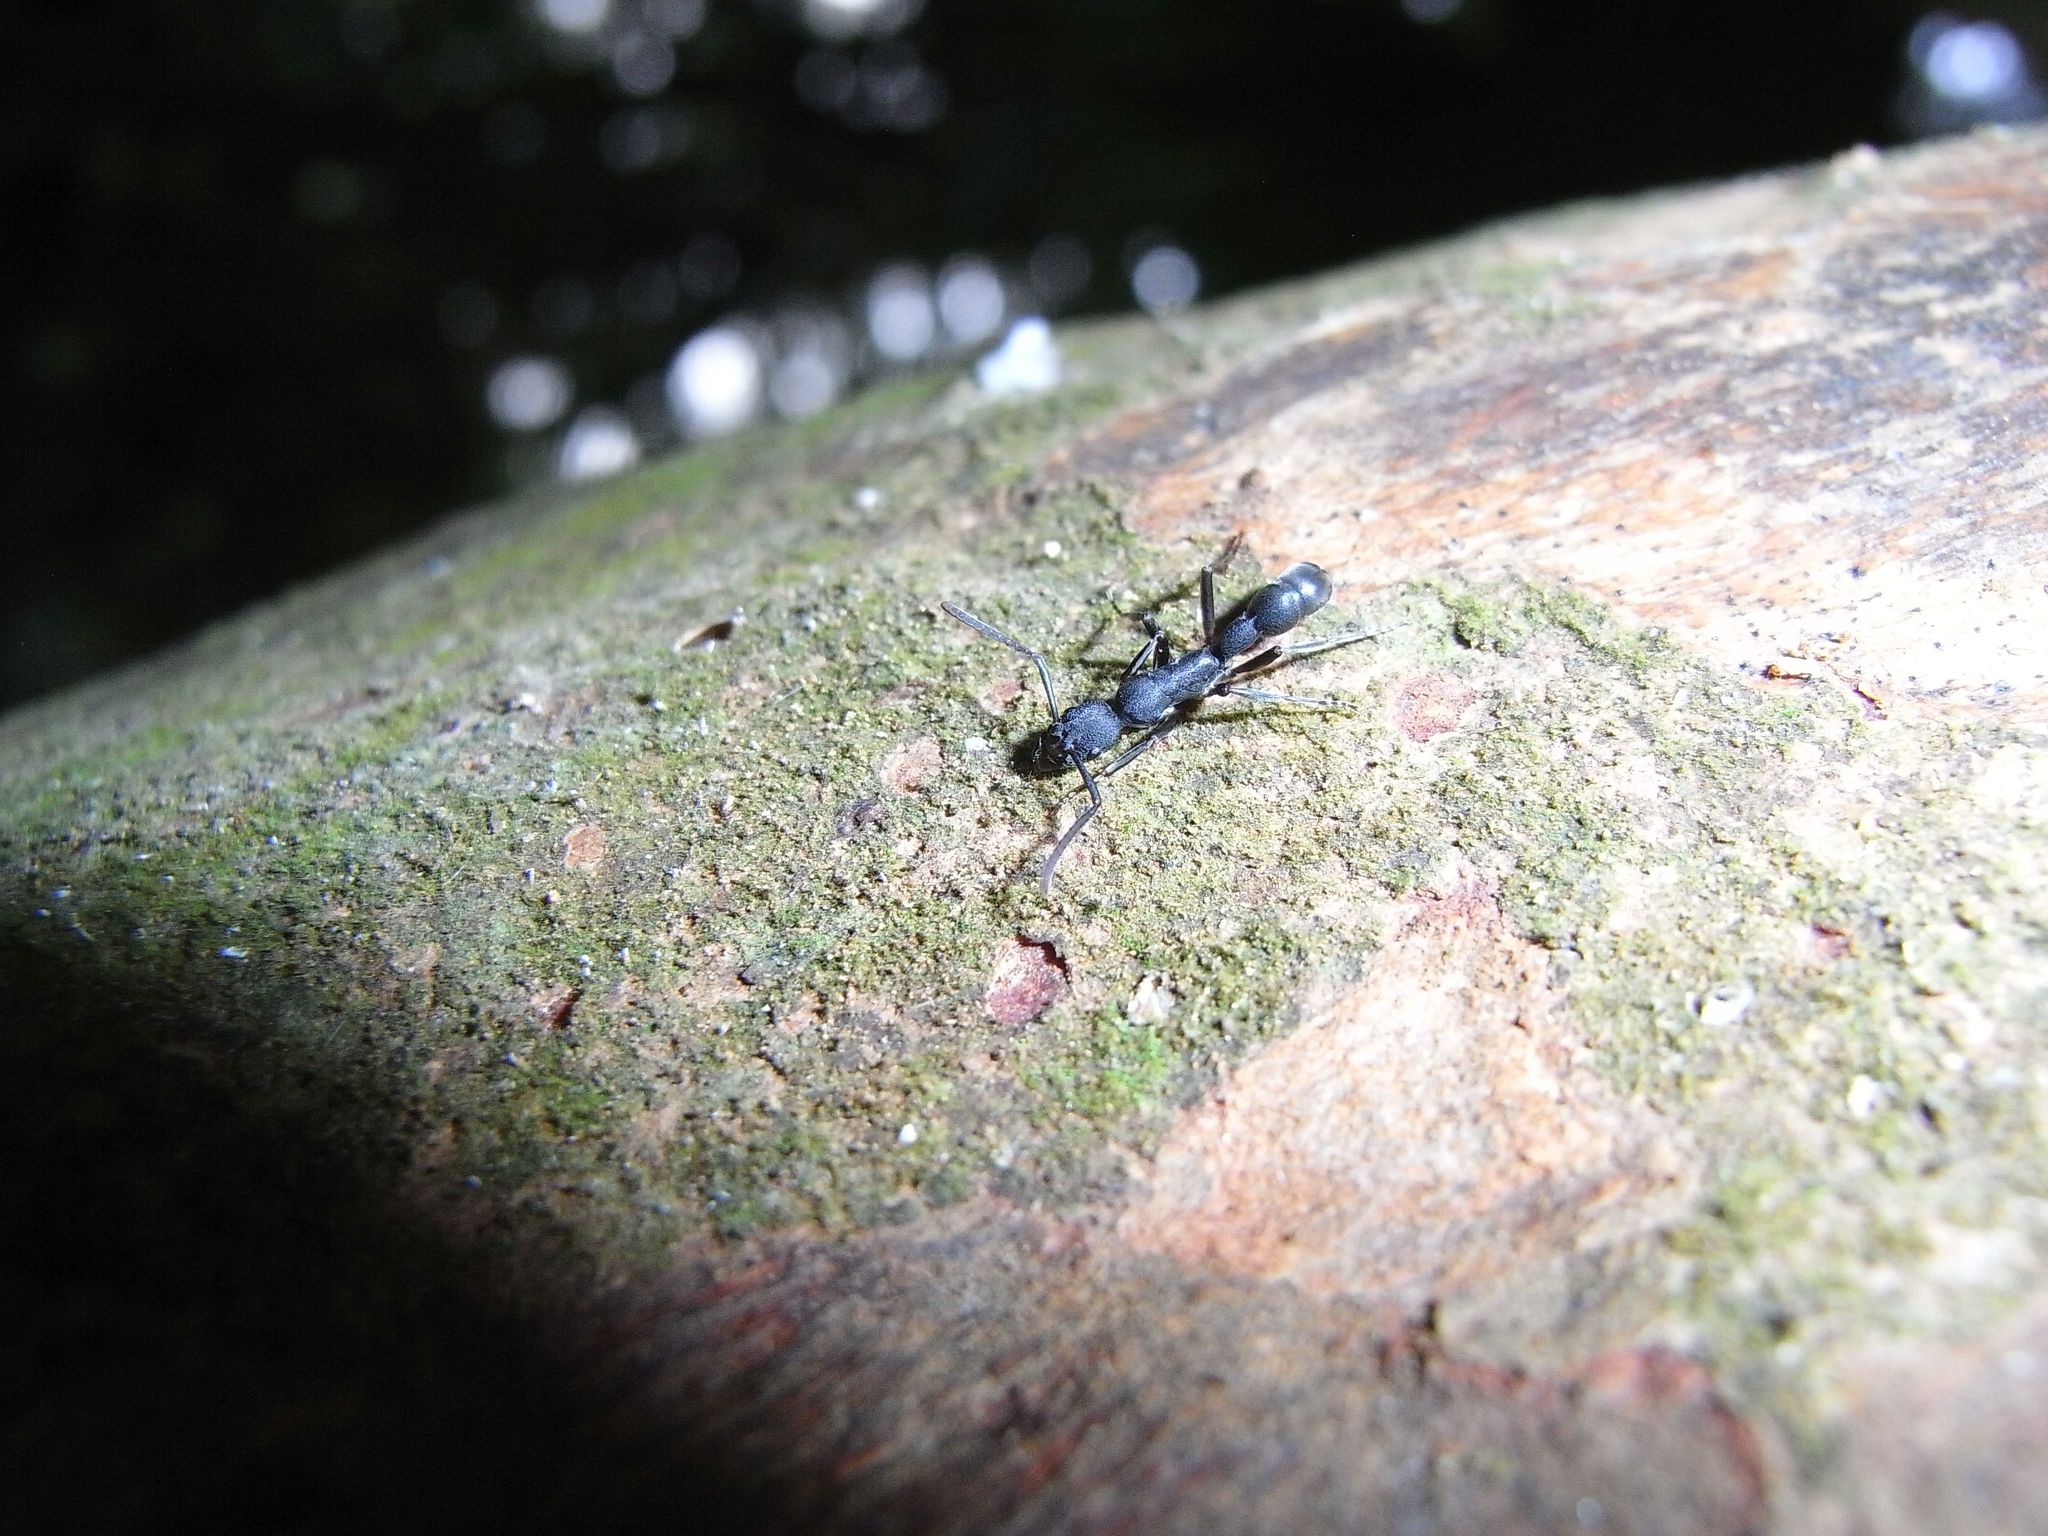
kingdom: Animalia
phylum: Arthropoda
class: Insecta
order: Hymenoptera
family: Formicidae
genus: Platythyrea
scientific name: Platythyrea tricuspidata
